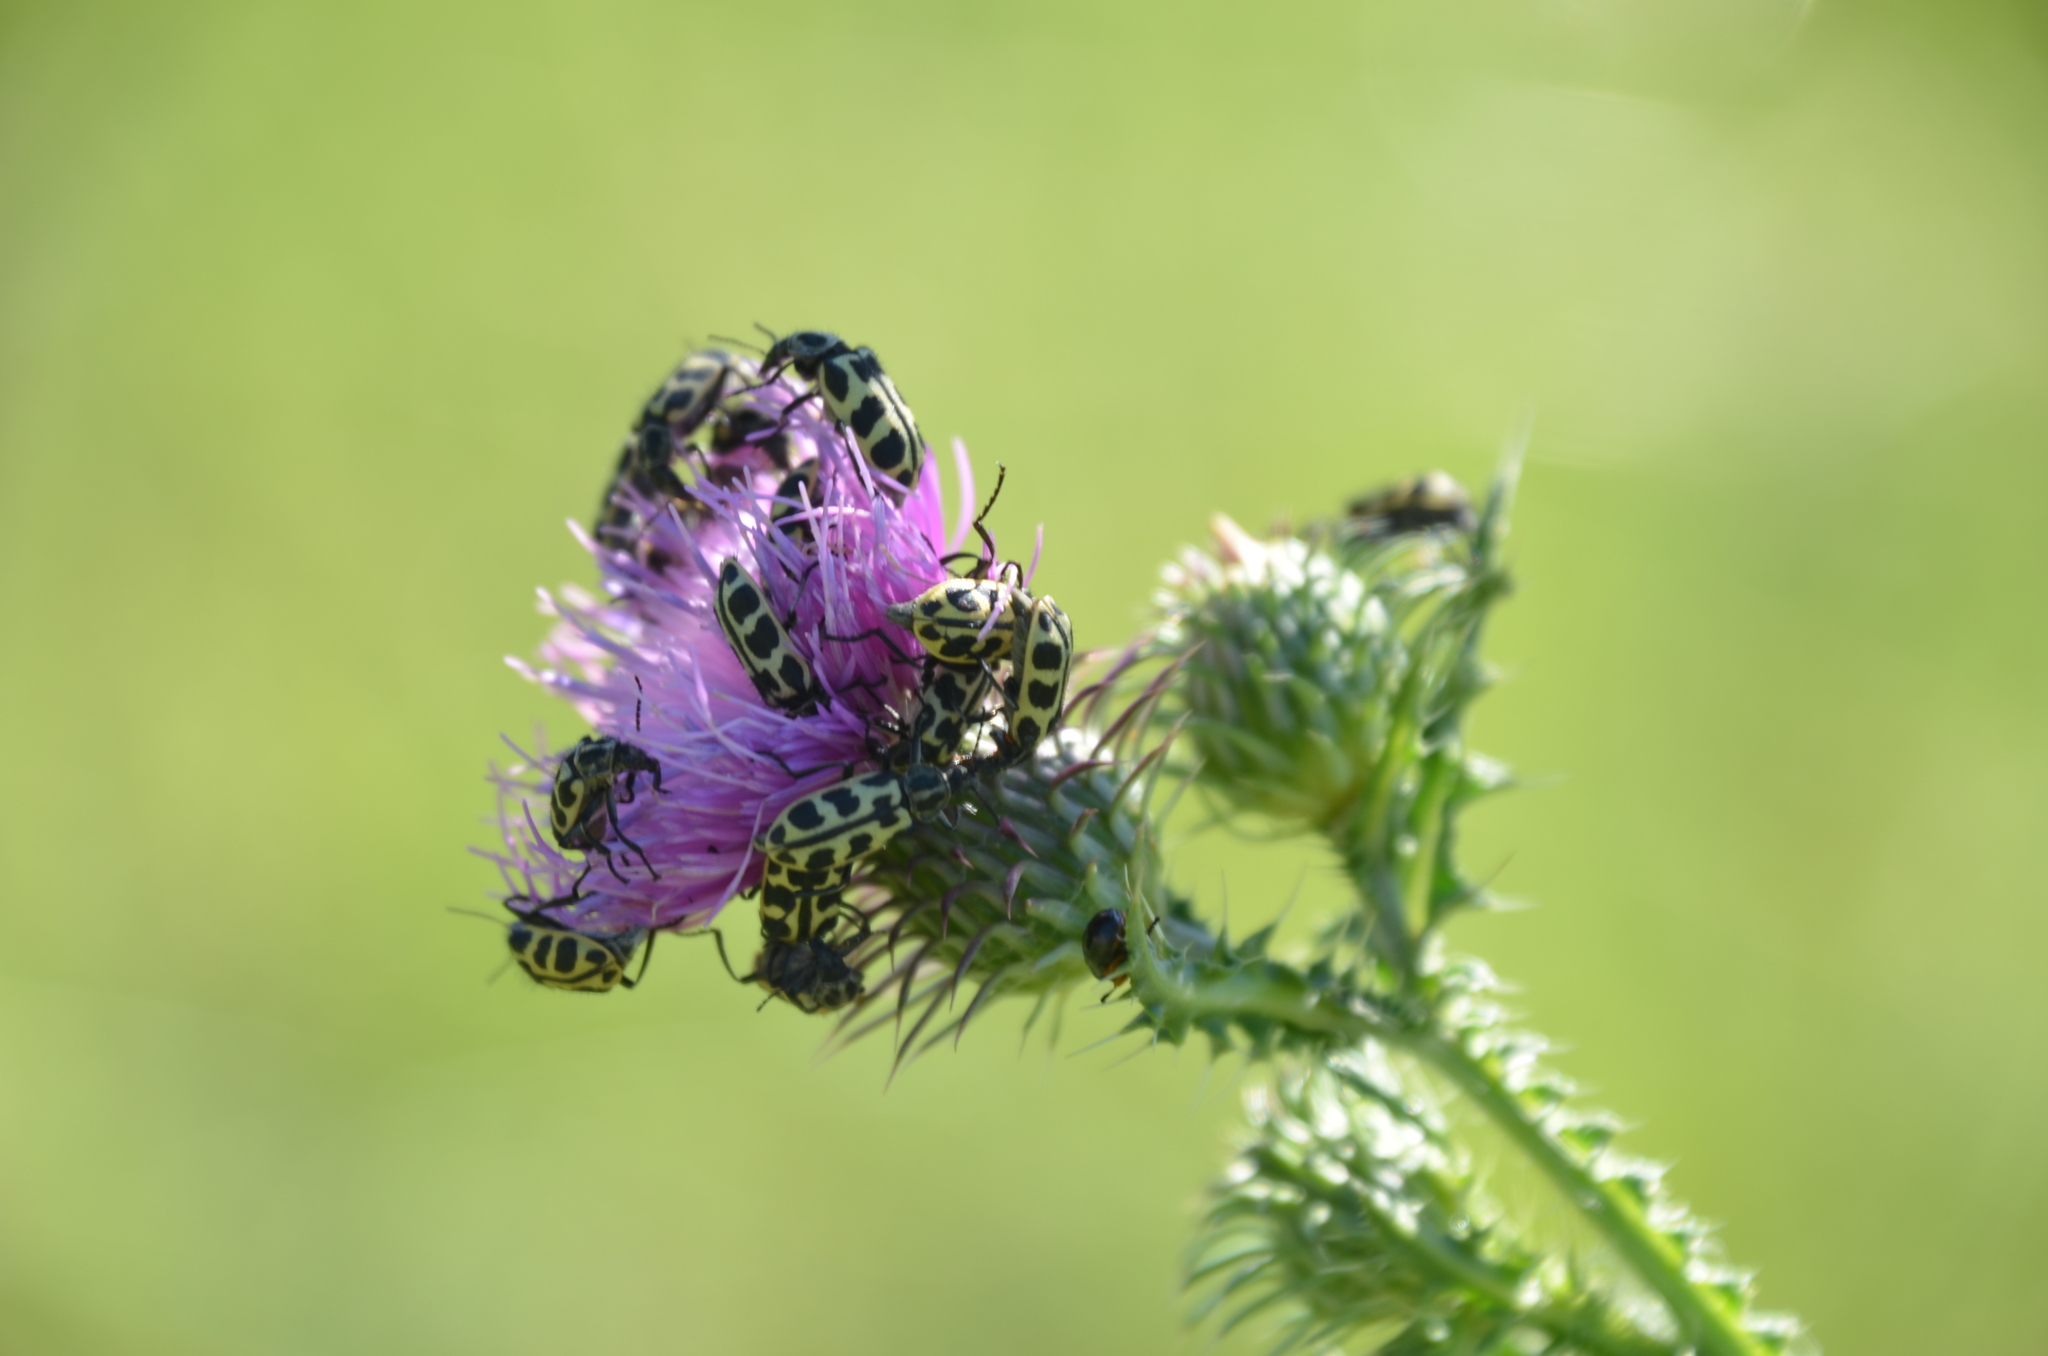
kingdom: Animalia
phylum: Arthropoda
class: Insecta
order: Coleoptera
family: Melyridae
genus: Astylus
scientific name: Astylus atromaculatus
